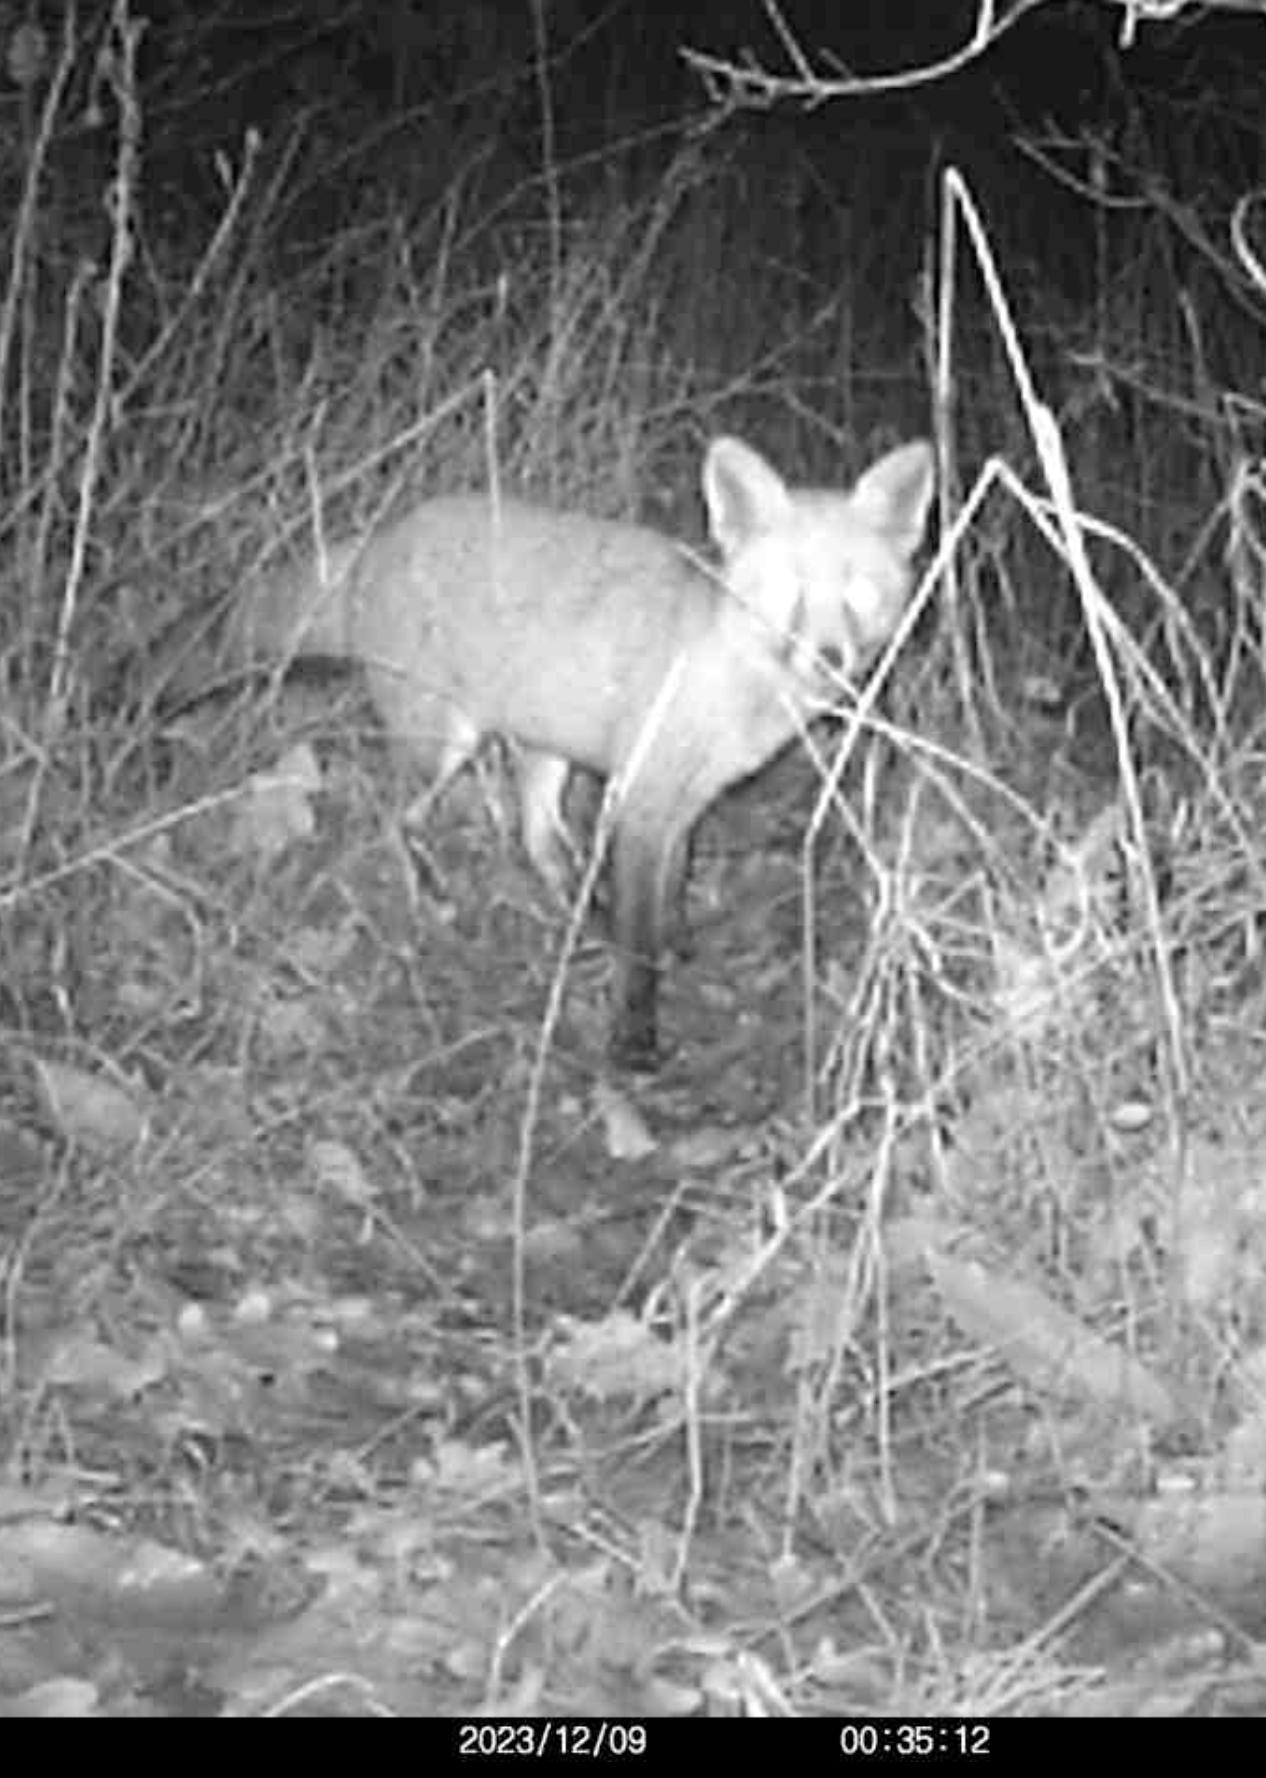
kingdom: Animalia
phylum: Chordata
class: Mammalia
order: Carnivora
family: Canidae
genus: Vulpes
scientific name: Vulpes vulpes
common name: Red fox
